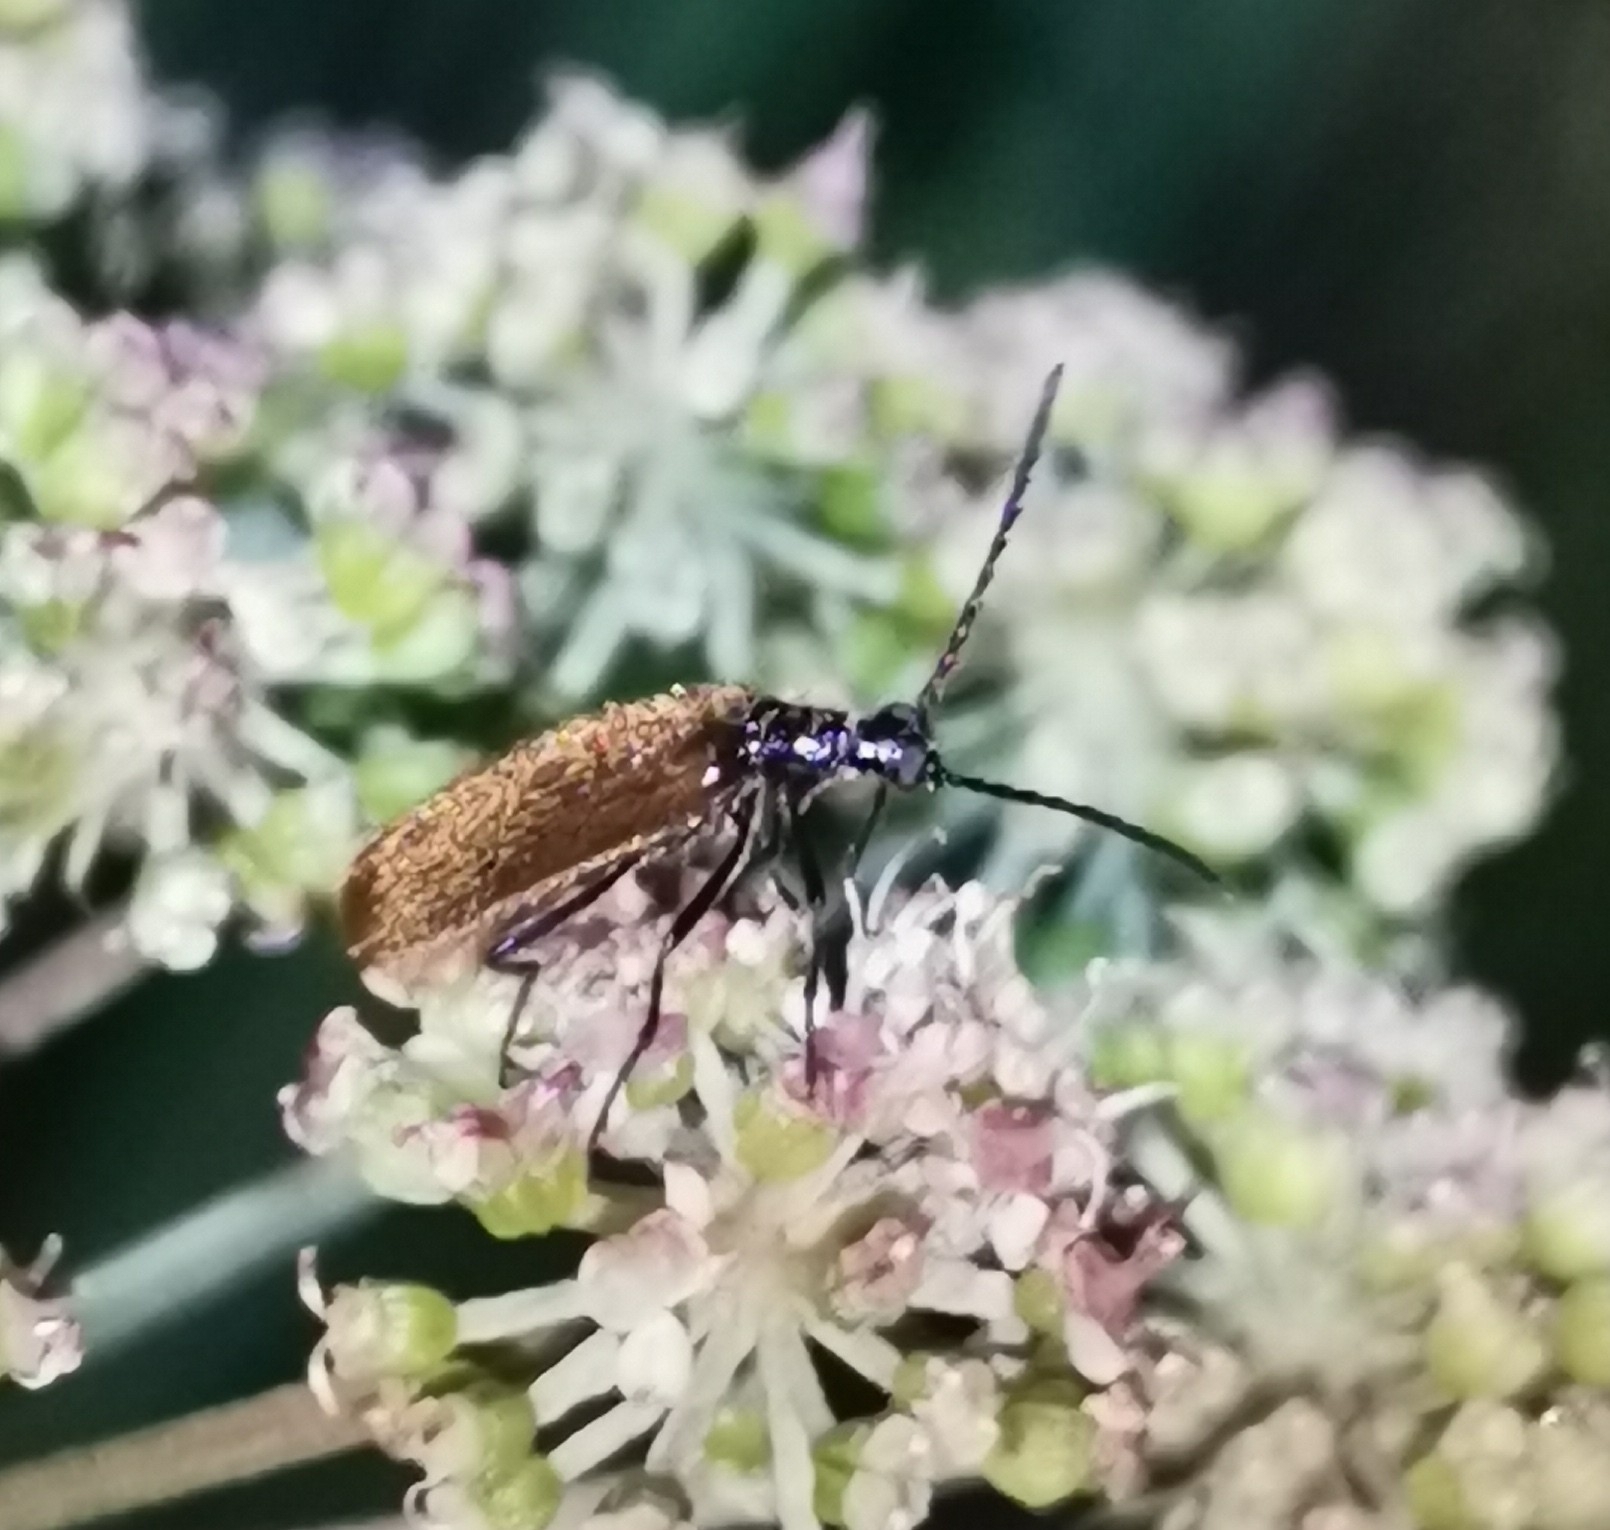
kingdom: Animalia
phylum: Arthropoda
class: Insecta
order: Coleoptera
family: Tenebrionidae
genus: Lagria
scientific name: Lagria hirta
